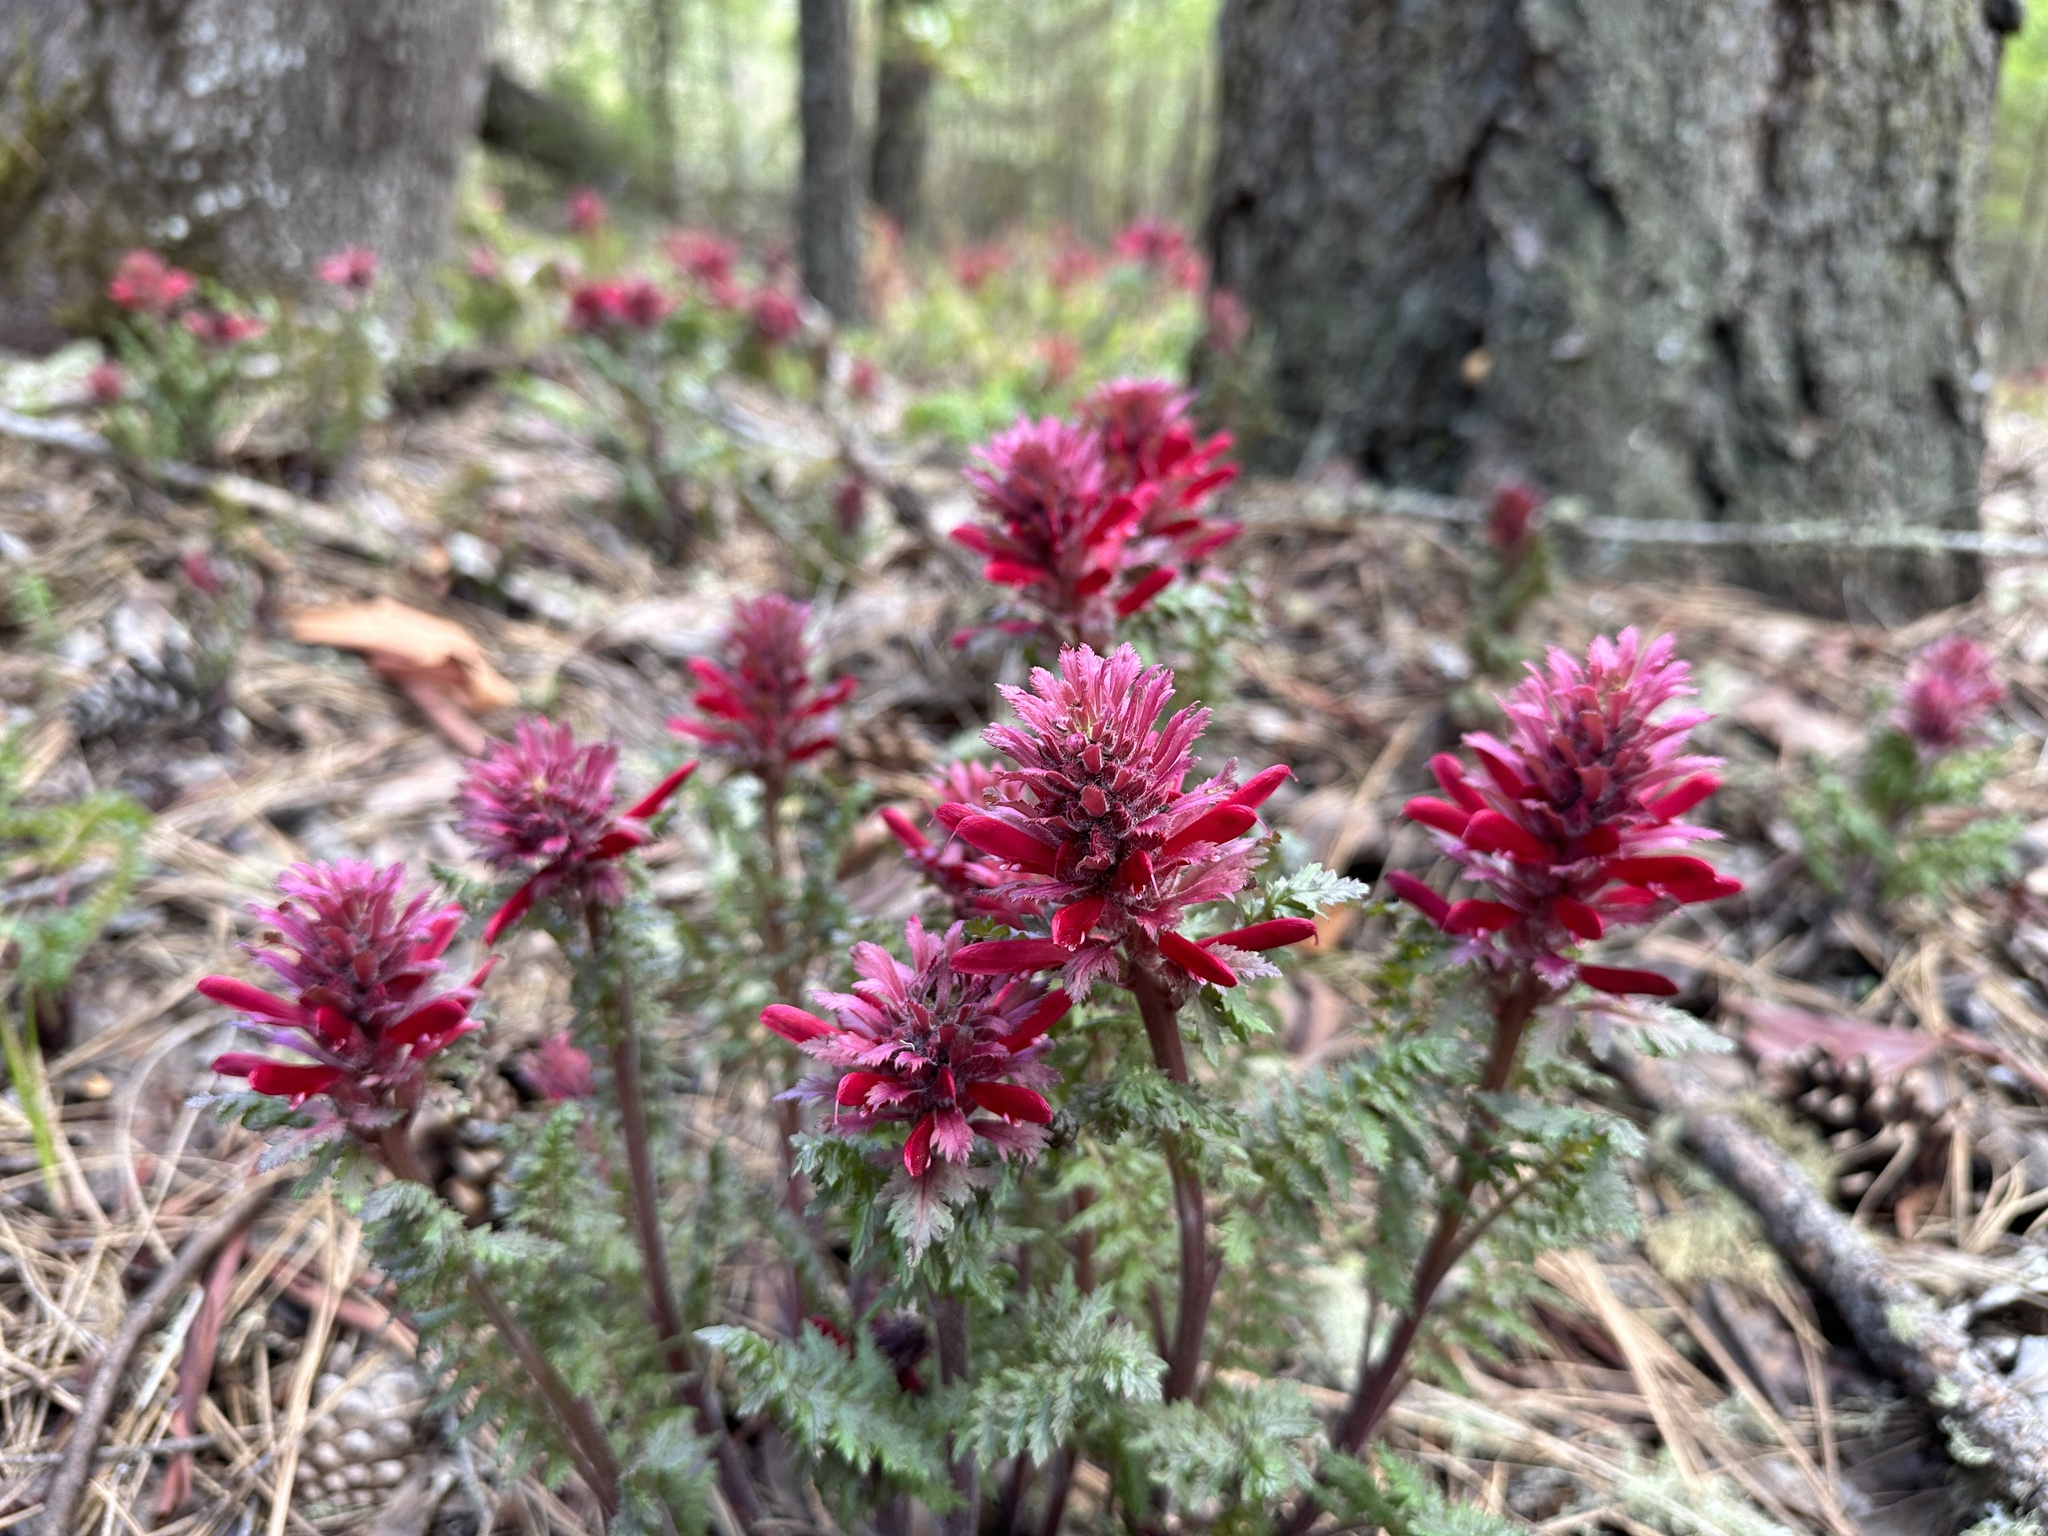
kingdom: Plantae
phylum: Tracheophyta
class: Magnoliopsida
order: Lamiales
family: Orobanchaceae
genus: Pedicularis
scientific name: Pedicularis densiflora
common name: Indian warrior
